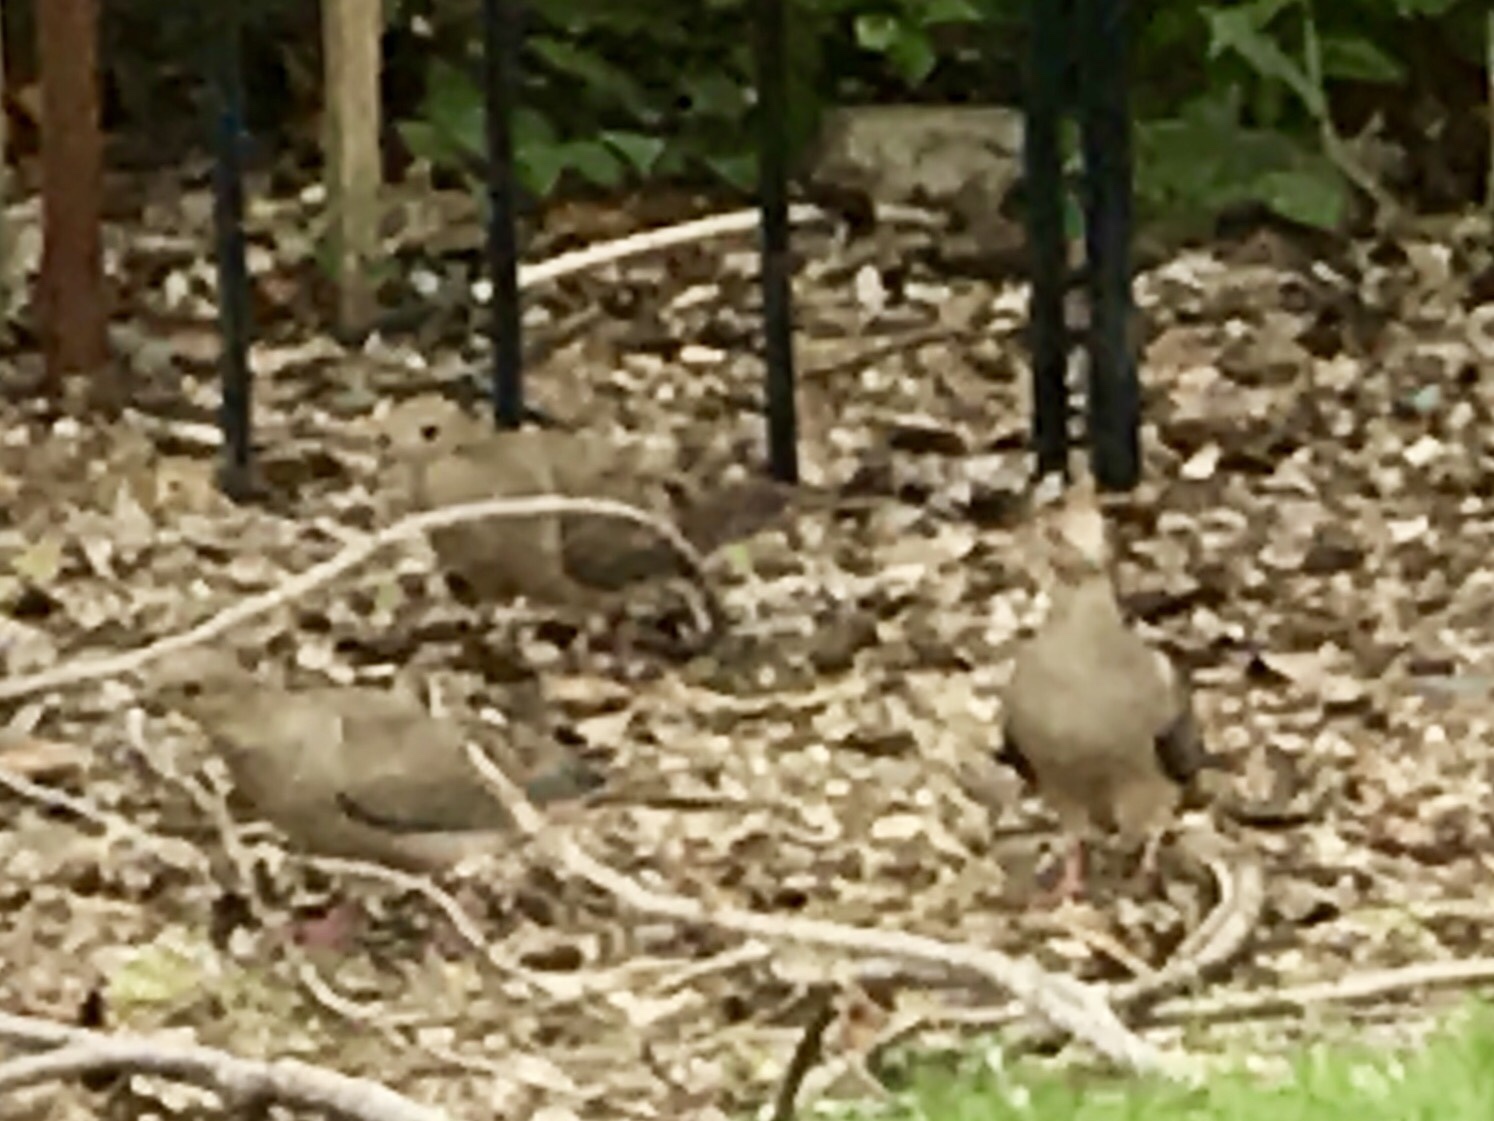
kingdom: Animalia
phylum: Chordata
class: Aves
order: Columbiformes
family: Columbidae
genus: Zenaida
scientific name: Zenaida macroura
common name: Mourning dove
